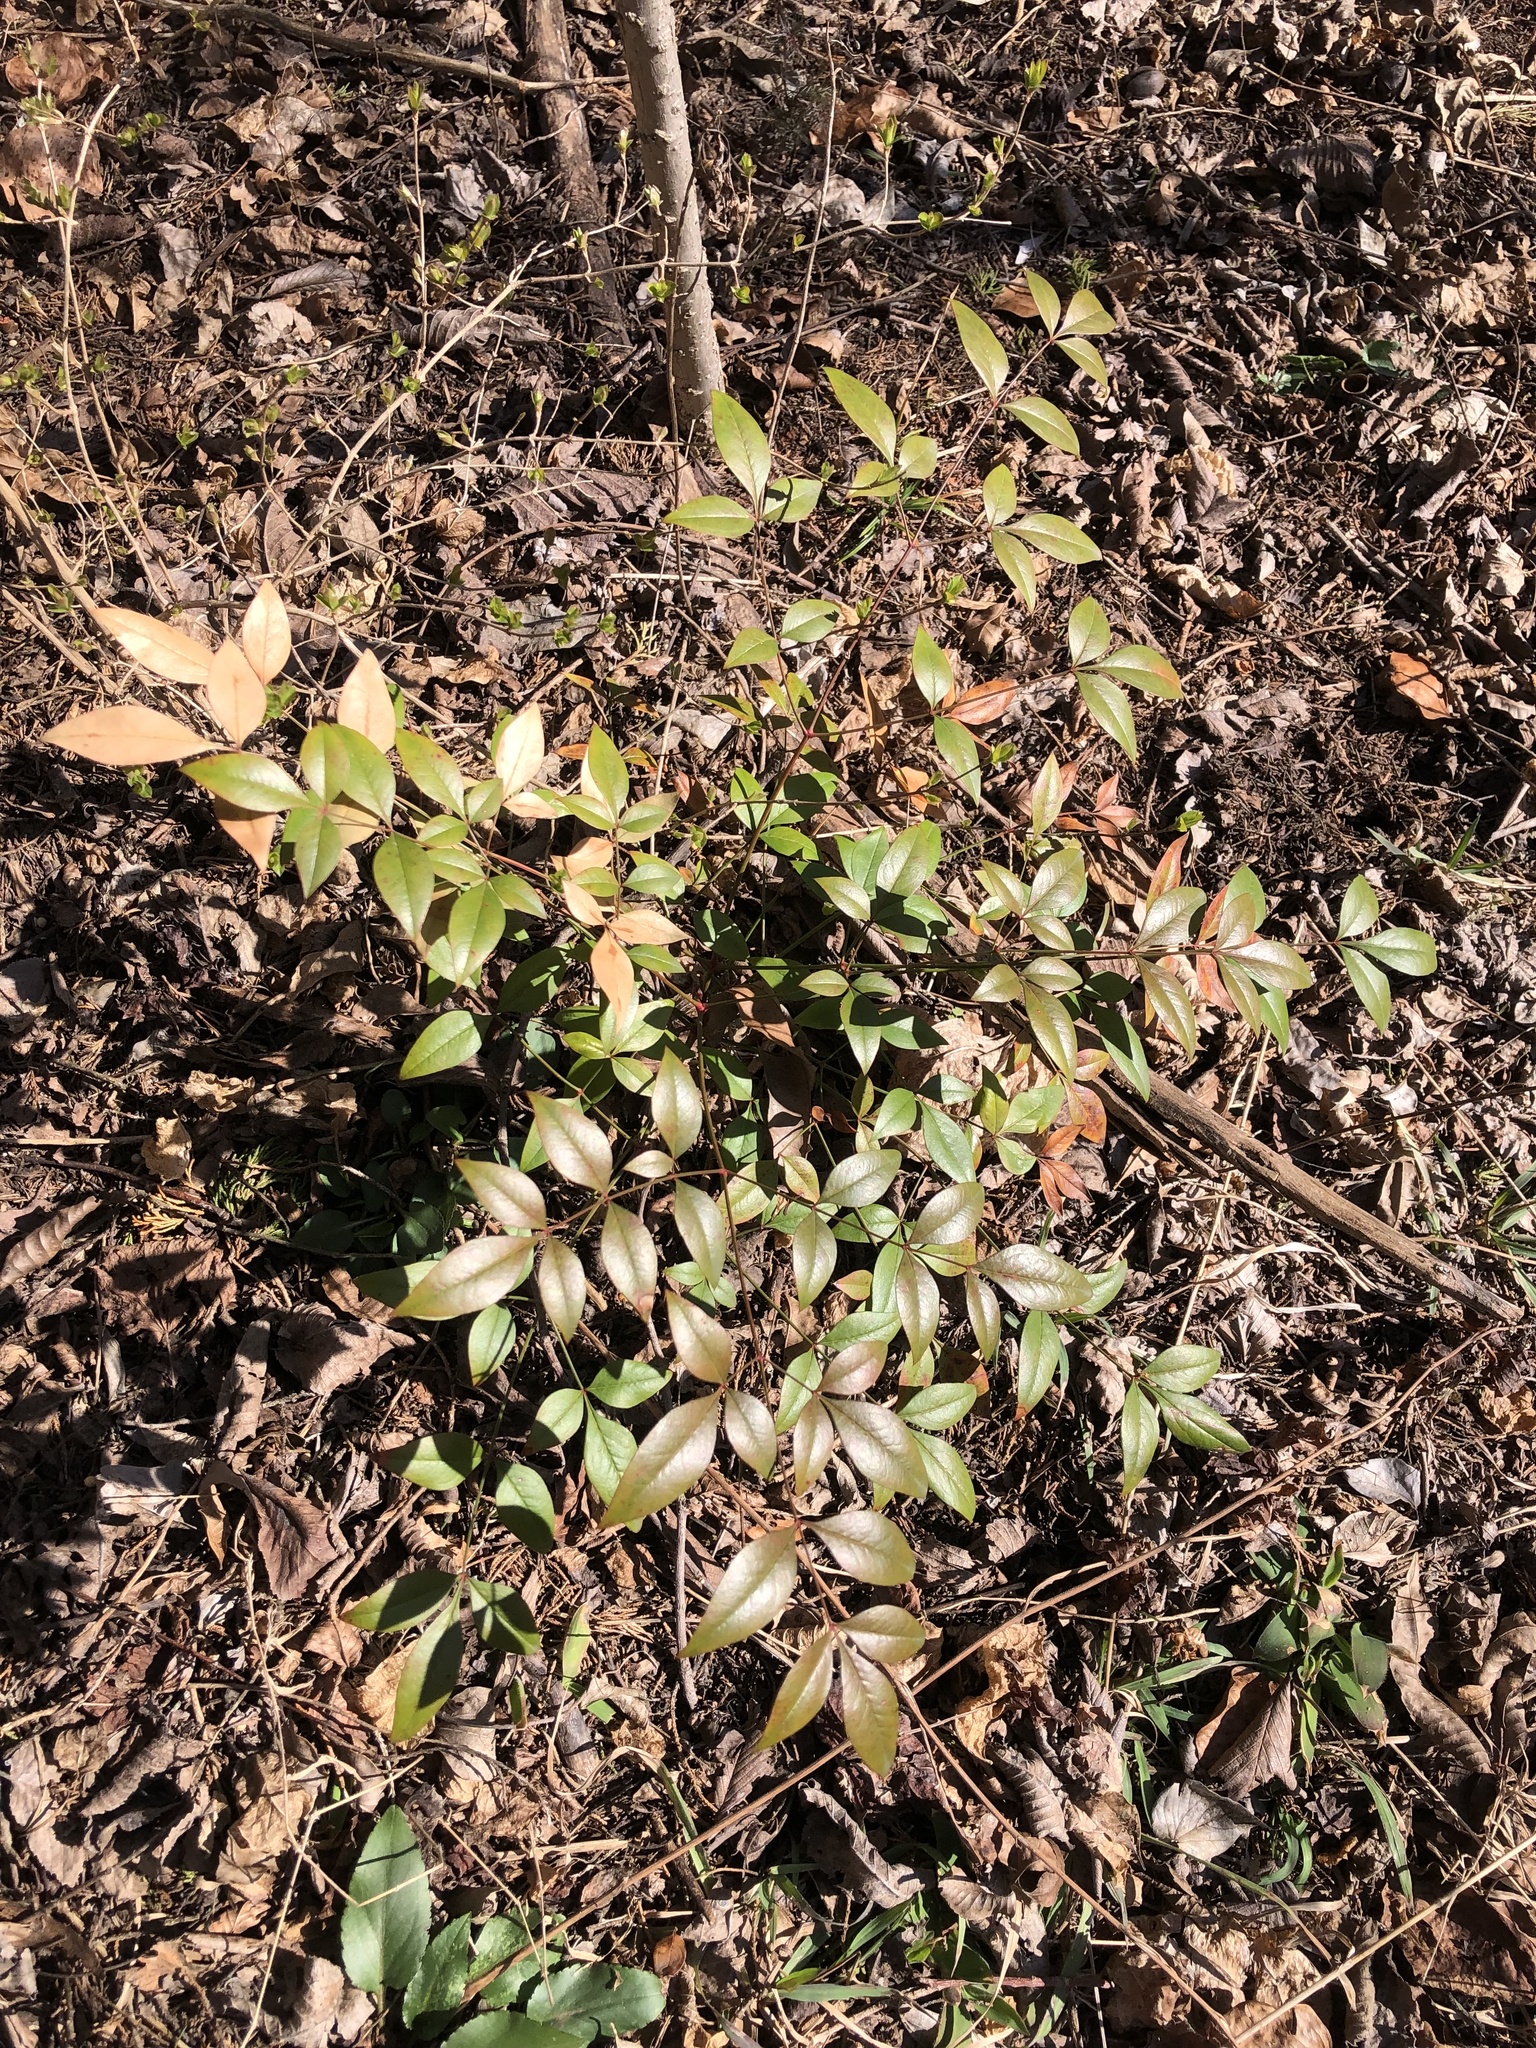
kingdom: Plantae
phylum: Tracheophyta
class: Magnoliopsida
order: Ranunculales
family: Berberidaceae
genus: Nandina
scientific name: Nandina domestica
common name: Sacred bamboo
